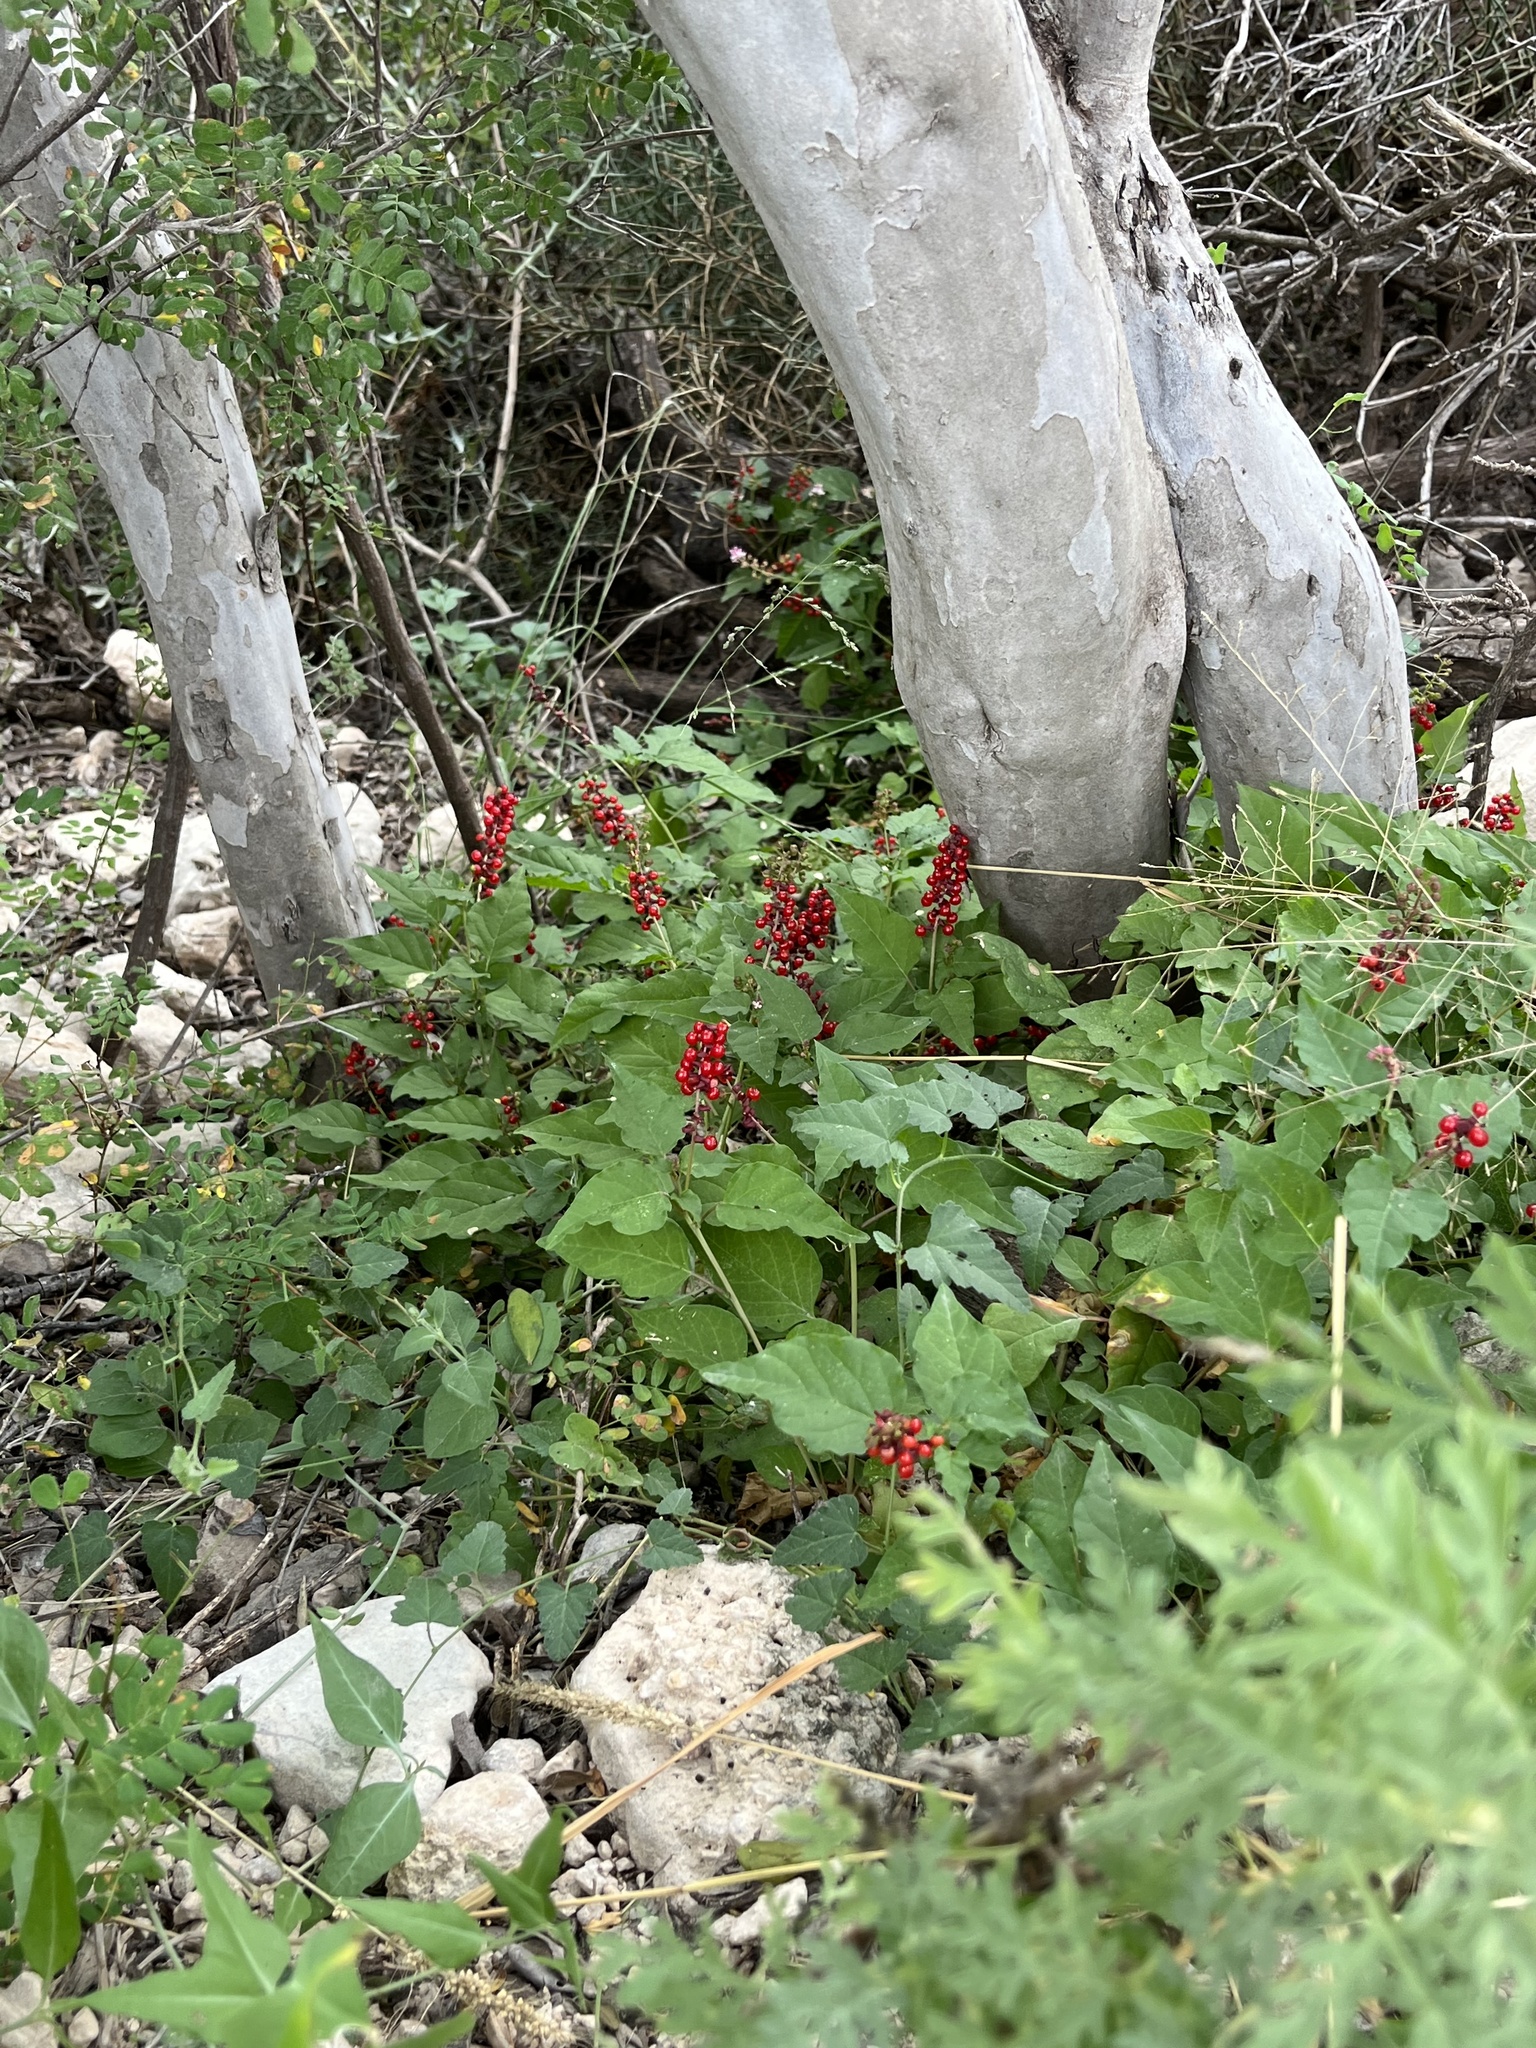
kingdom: Plantae
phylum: Tracheophyta
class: Magnoliopsida
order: Caryophyllales
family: Phytolaccaceae
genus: Rivina
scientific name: Rivina humilis
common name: Rougeplant
